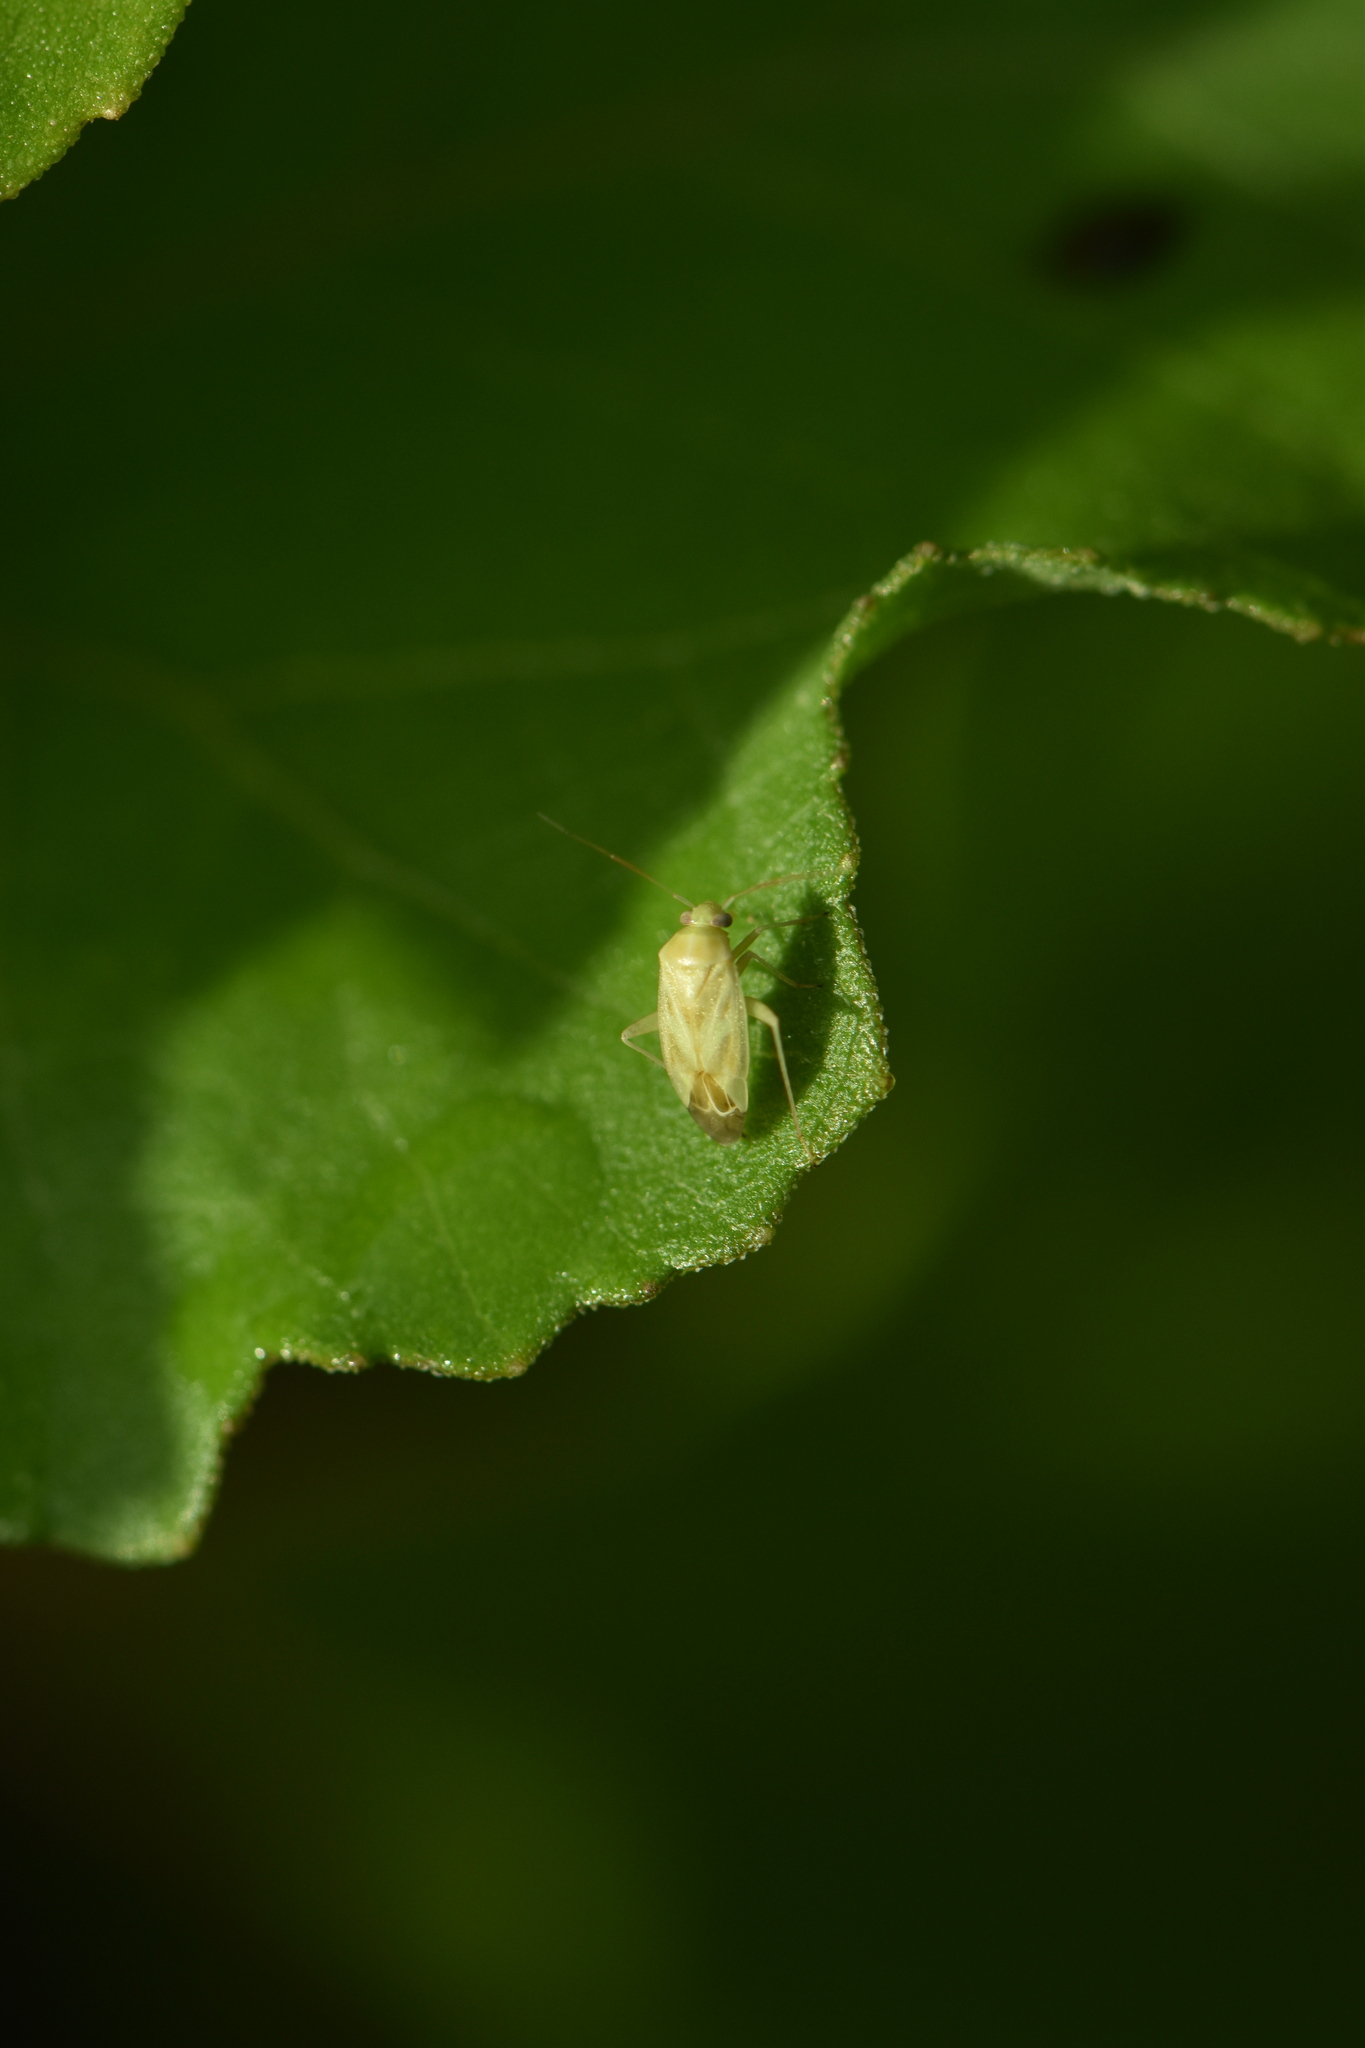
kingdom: Animalia
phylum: Arthropoda
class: Insecta
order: Hemiptera
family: Miridae
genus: Taylorilygus
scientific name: Taylorilygus apicalis
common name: Plant bug
